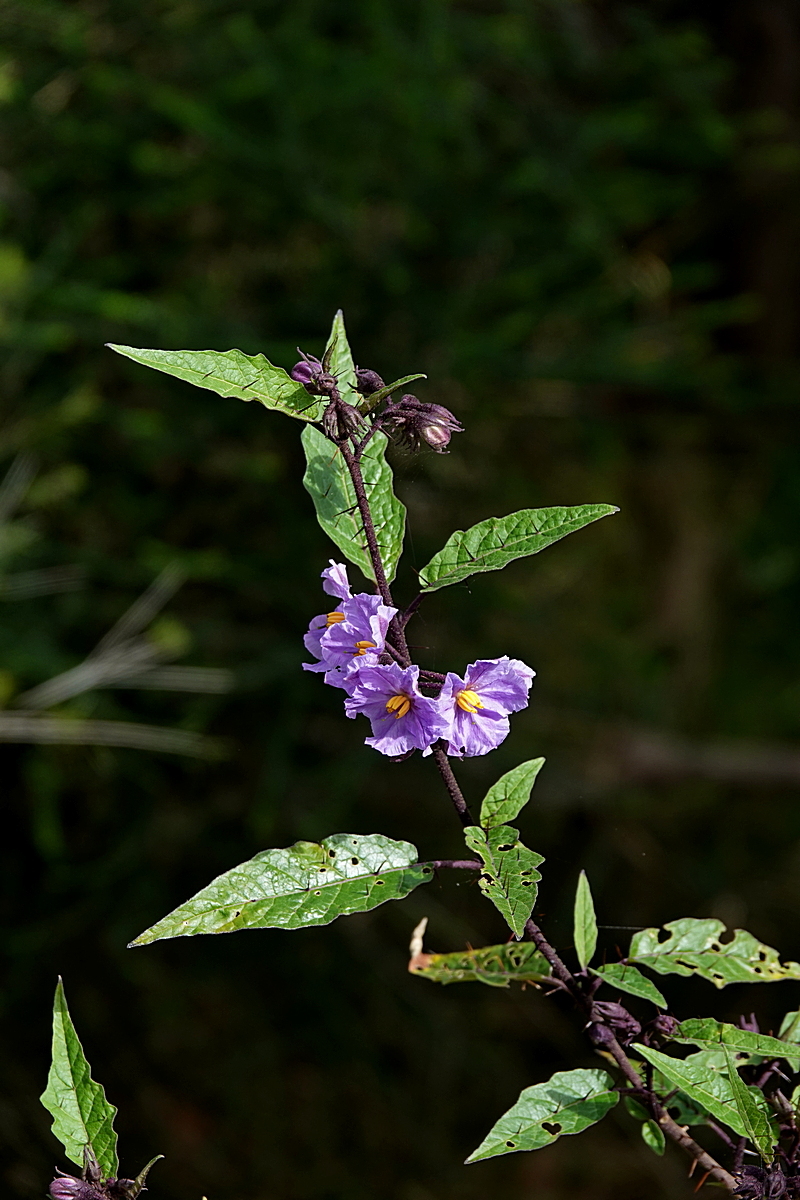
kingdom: Plantae
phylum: Tracheophyta
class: Magnoliopsida
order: Solanales
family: Solanaceae
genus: Solanum
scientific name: Solanum silvestre
